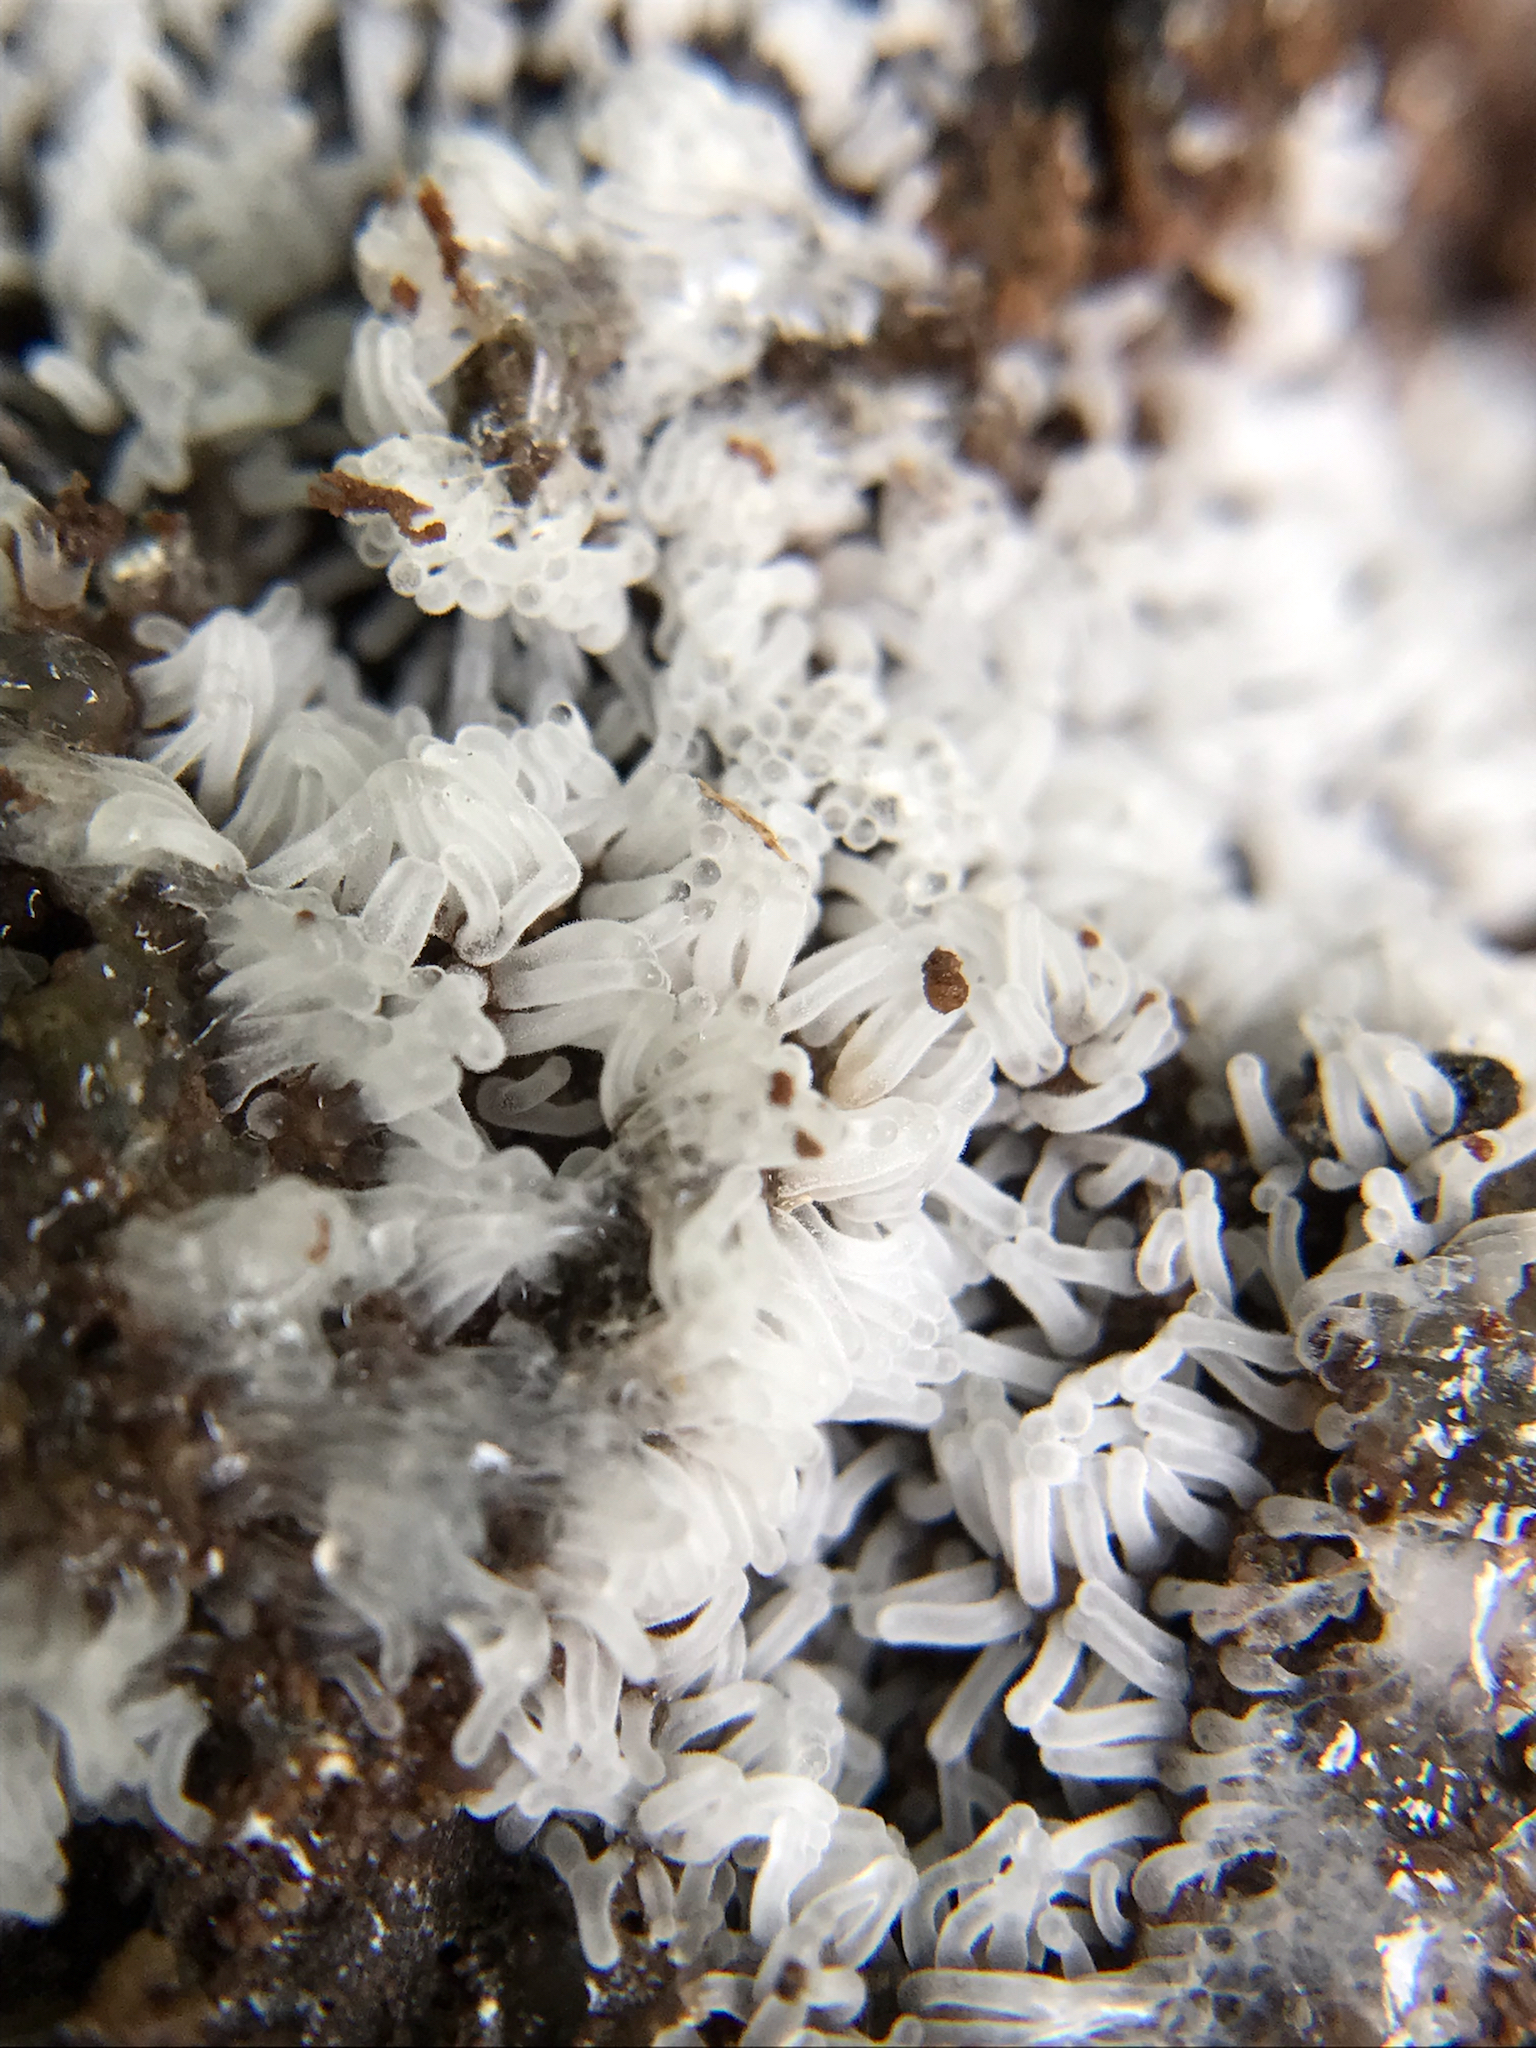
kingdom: Protozoa
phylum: Mycetozoa
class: Protosteliomycetes
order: Ceratiomyxales
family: Ceratiomyxaceae
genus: Ceratiomyxa
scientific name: Ceratiomyxa fruticulosa
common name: Honeycomb coral slime mold
